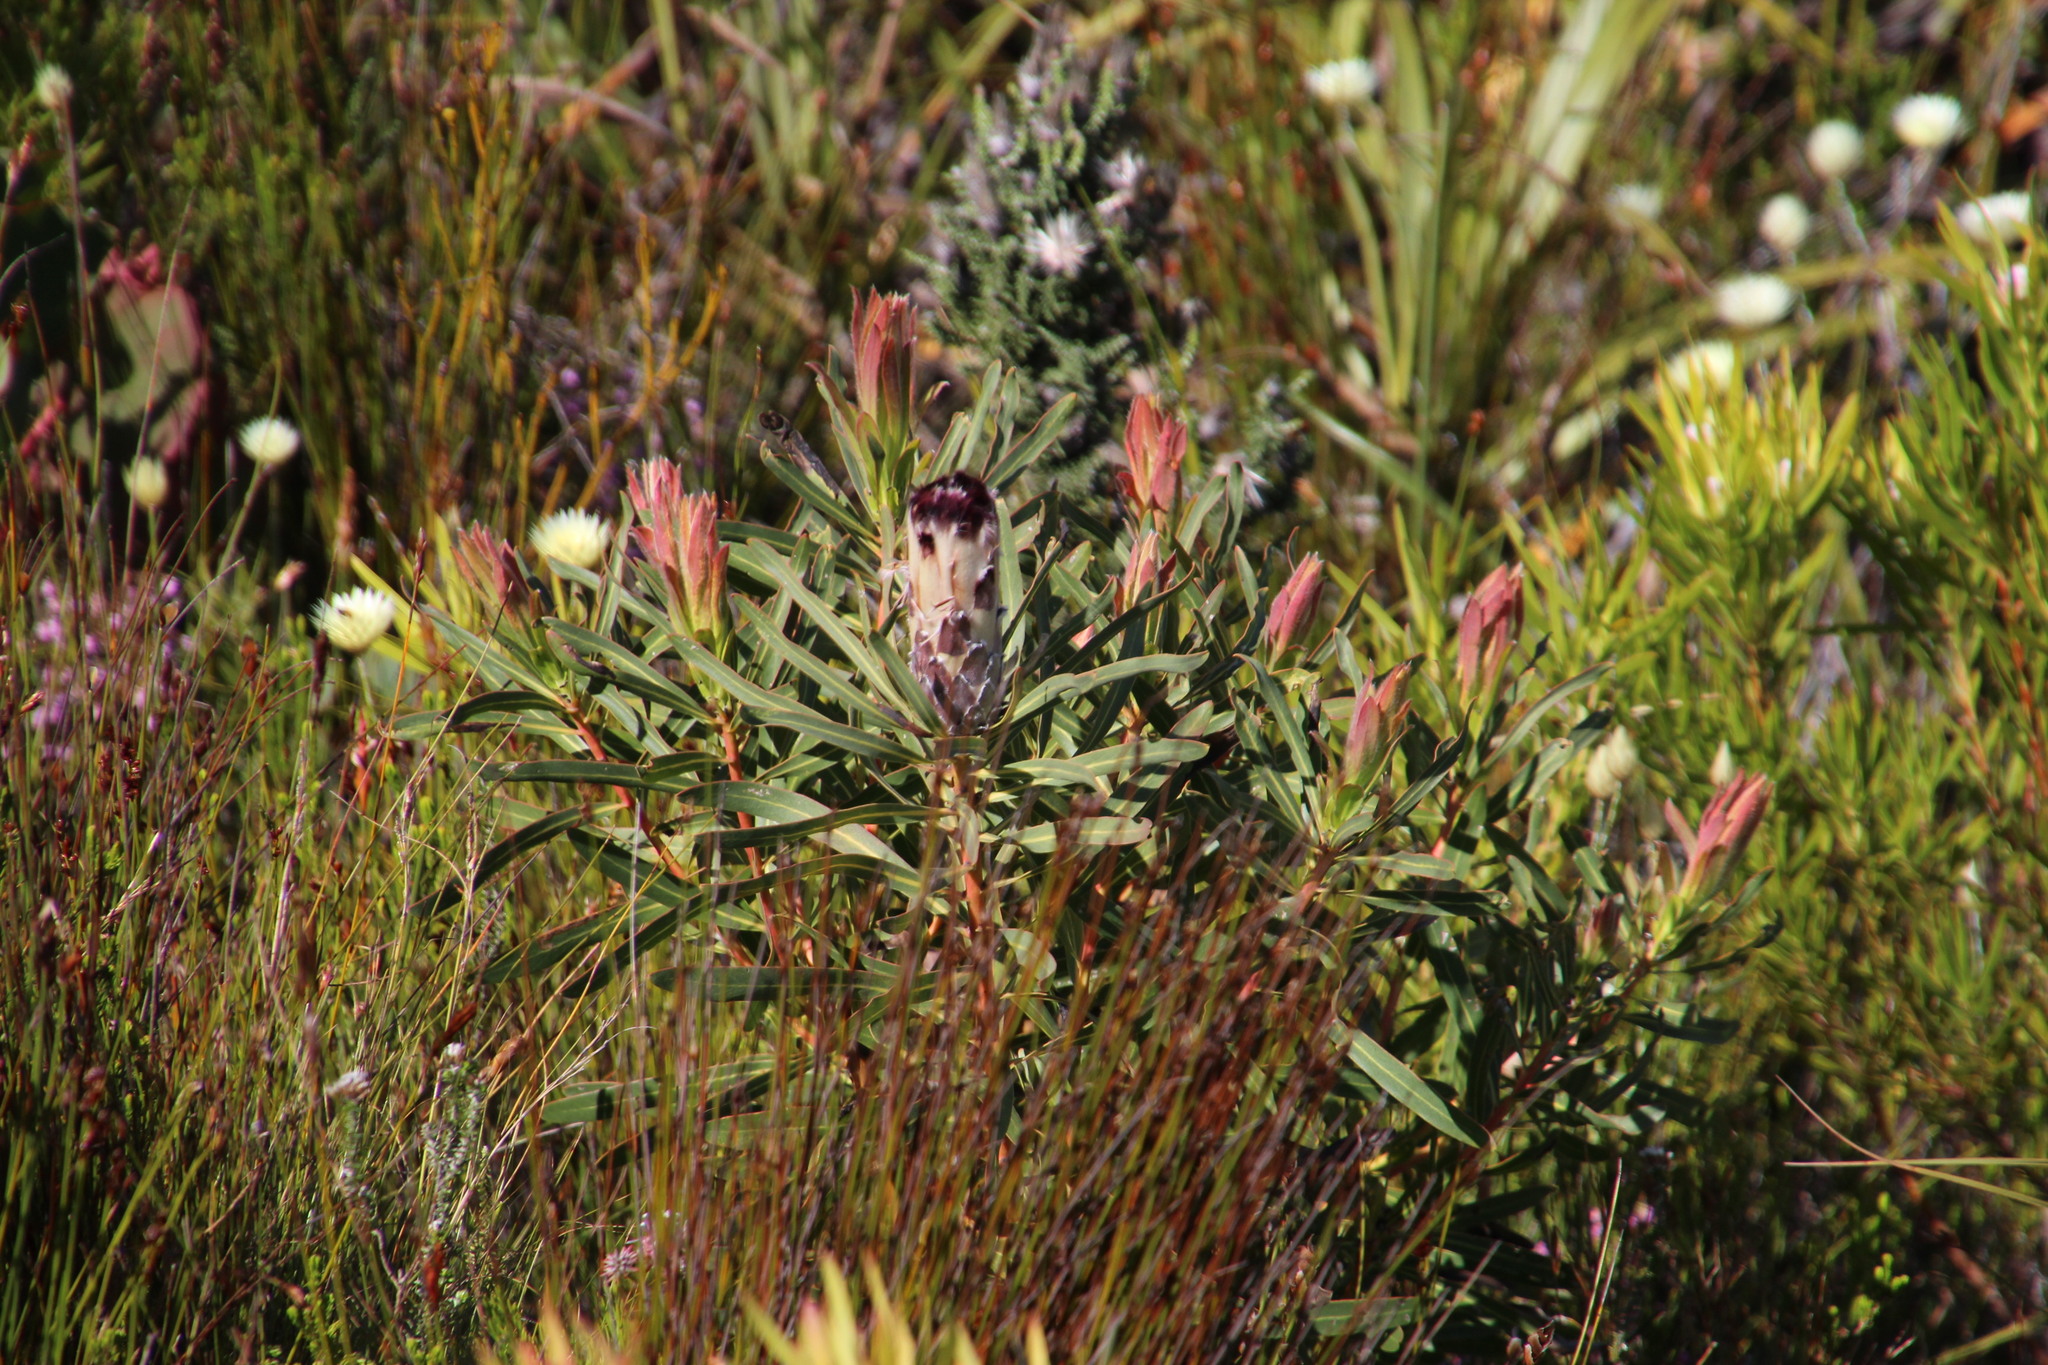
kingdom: Plantae
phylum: Tracheophyta
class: Magnoliopsida
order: Proteales
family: Proteaceae
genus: Protea
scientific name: Protea lepidocarpodendron
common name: Black-bearded protea
